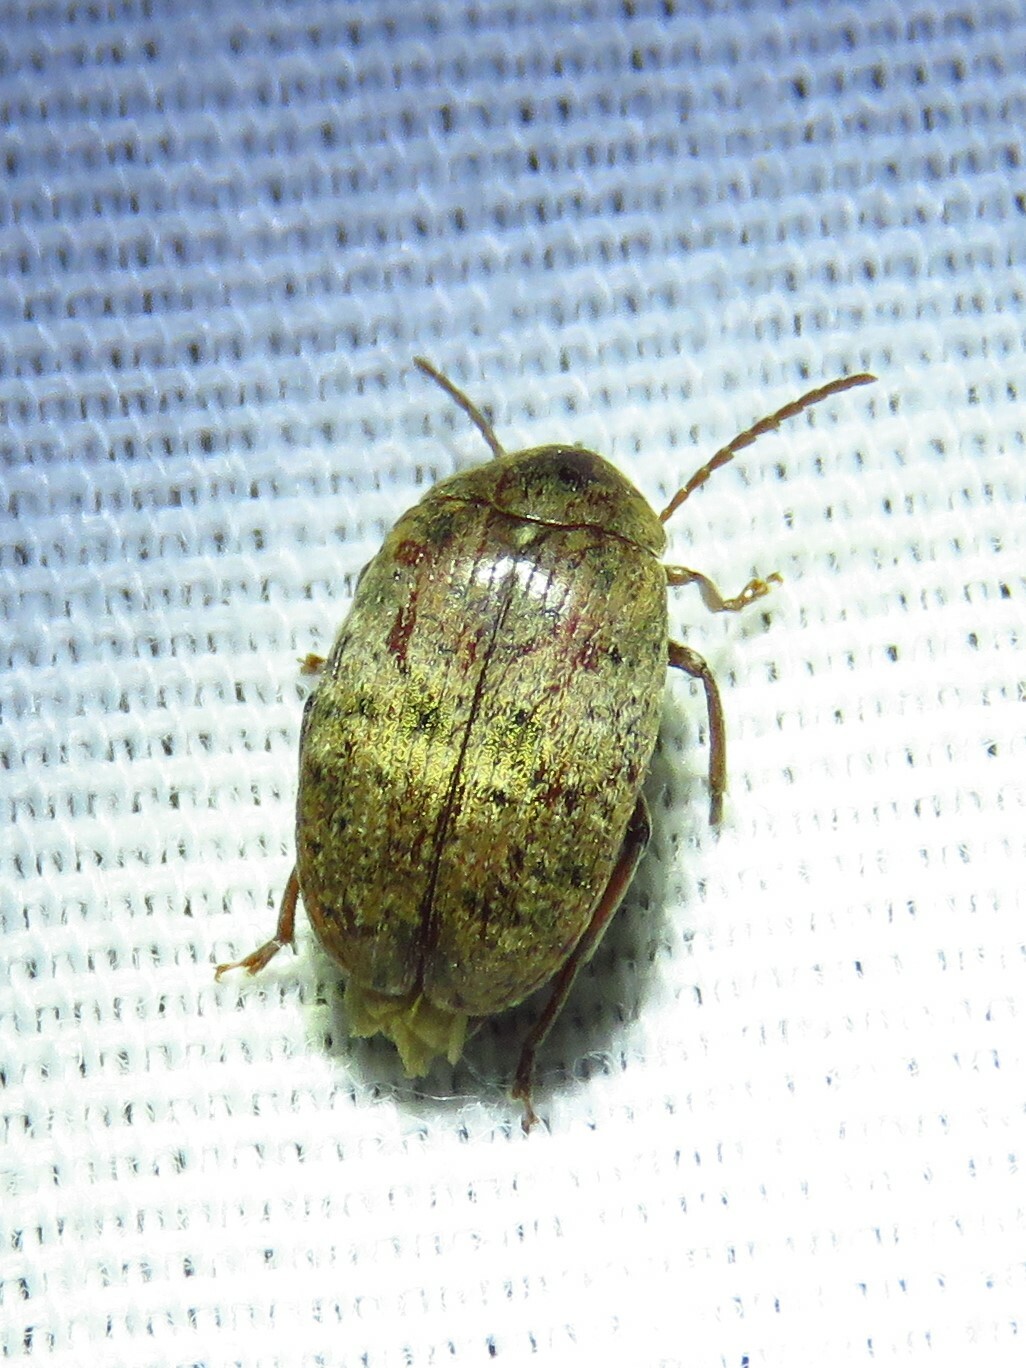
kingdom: Animalia
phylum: Arthropoda
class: Insecta
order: Coleoptera
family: Chrysomelidae
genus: Amblycerus
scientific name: Amblycerus robiniae
